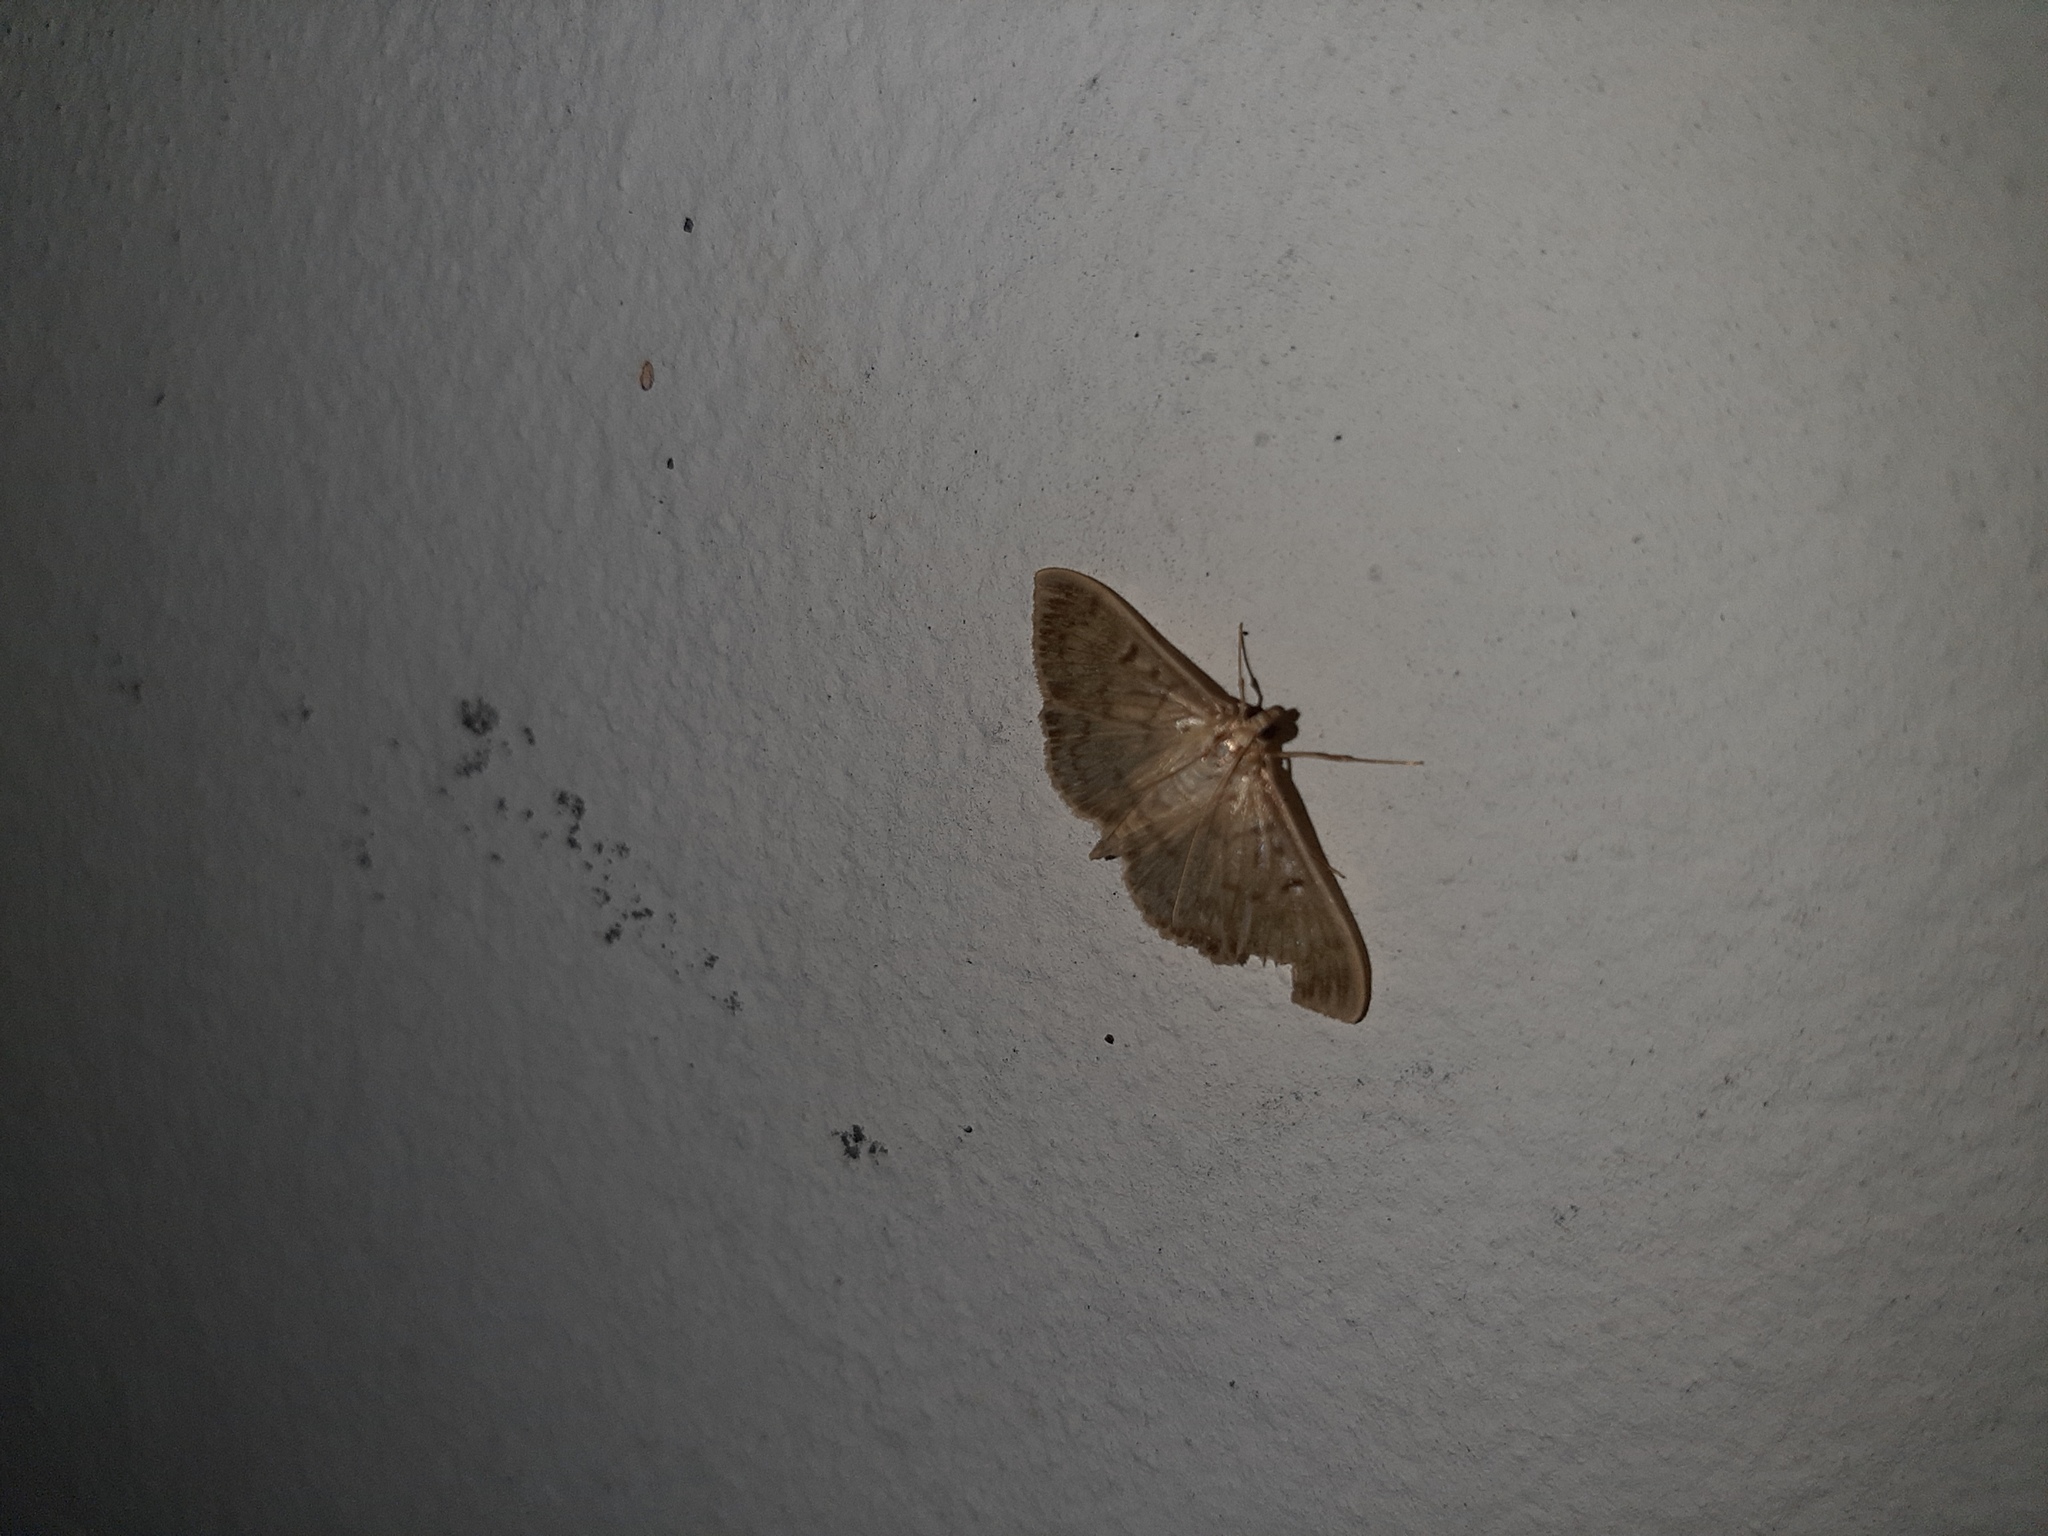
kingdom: Animalia
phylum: Arthropoda
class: Insecta
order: Lepidoptera
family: Crambidae
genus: Patania
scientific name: Patania ruralis
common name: Mother of pearl
